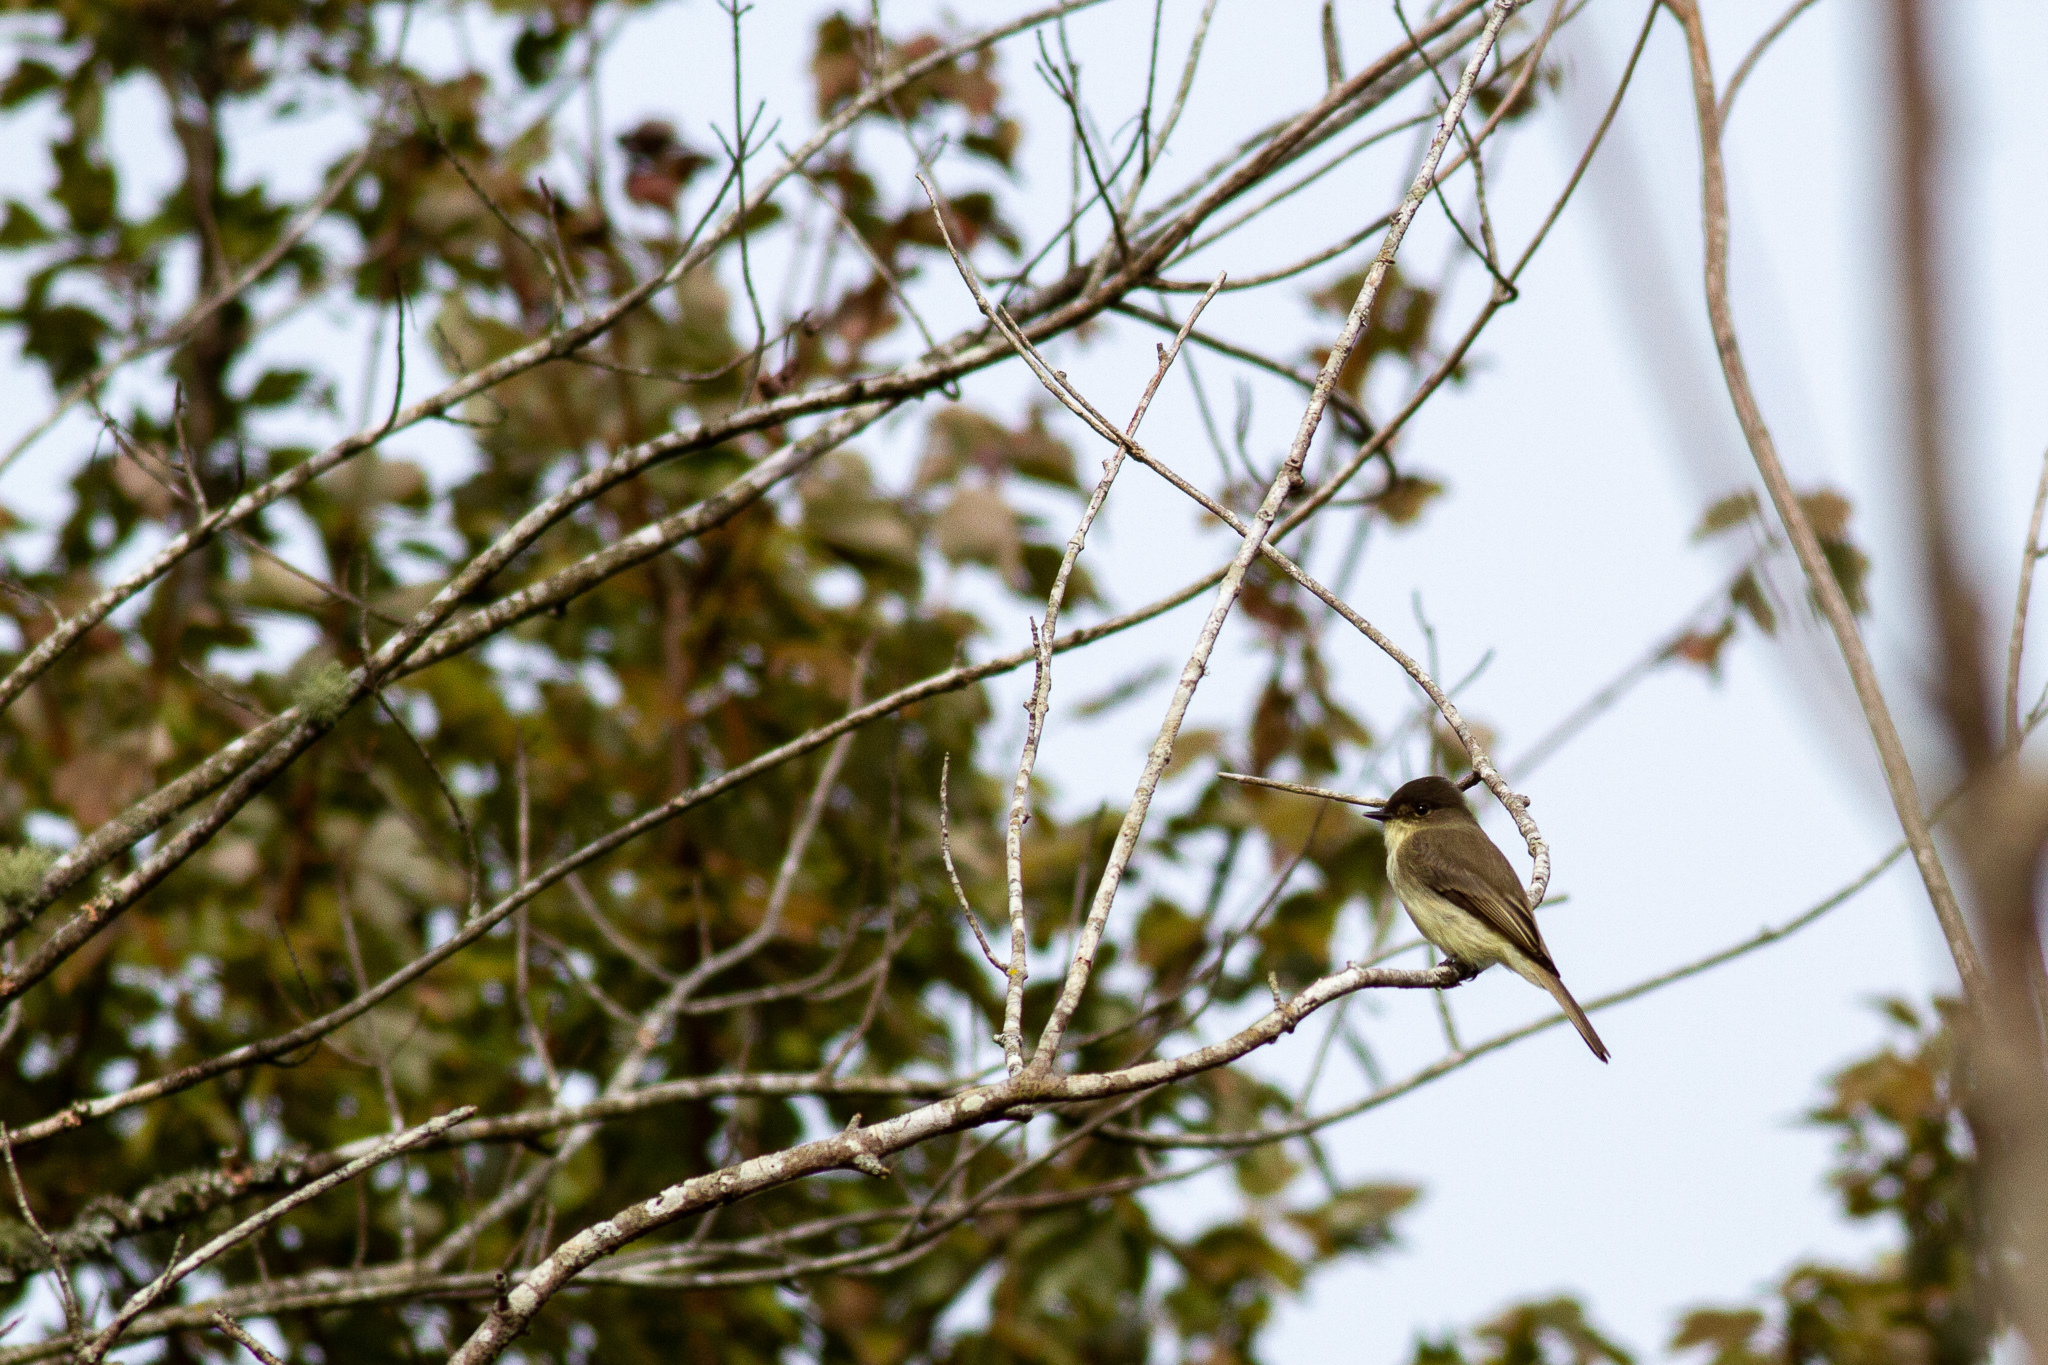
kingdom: Animalia
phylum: Chordata
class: Aves
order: Passeriformes
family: Tyrannidae
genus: Sayornis
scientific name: Sayornis phoebe
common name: Eastern phoebe
